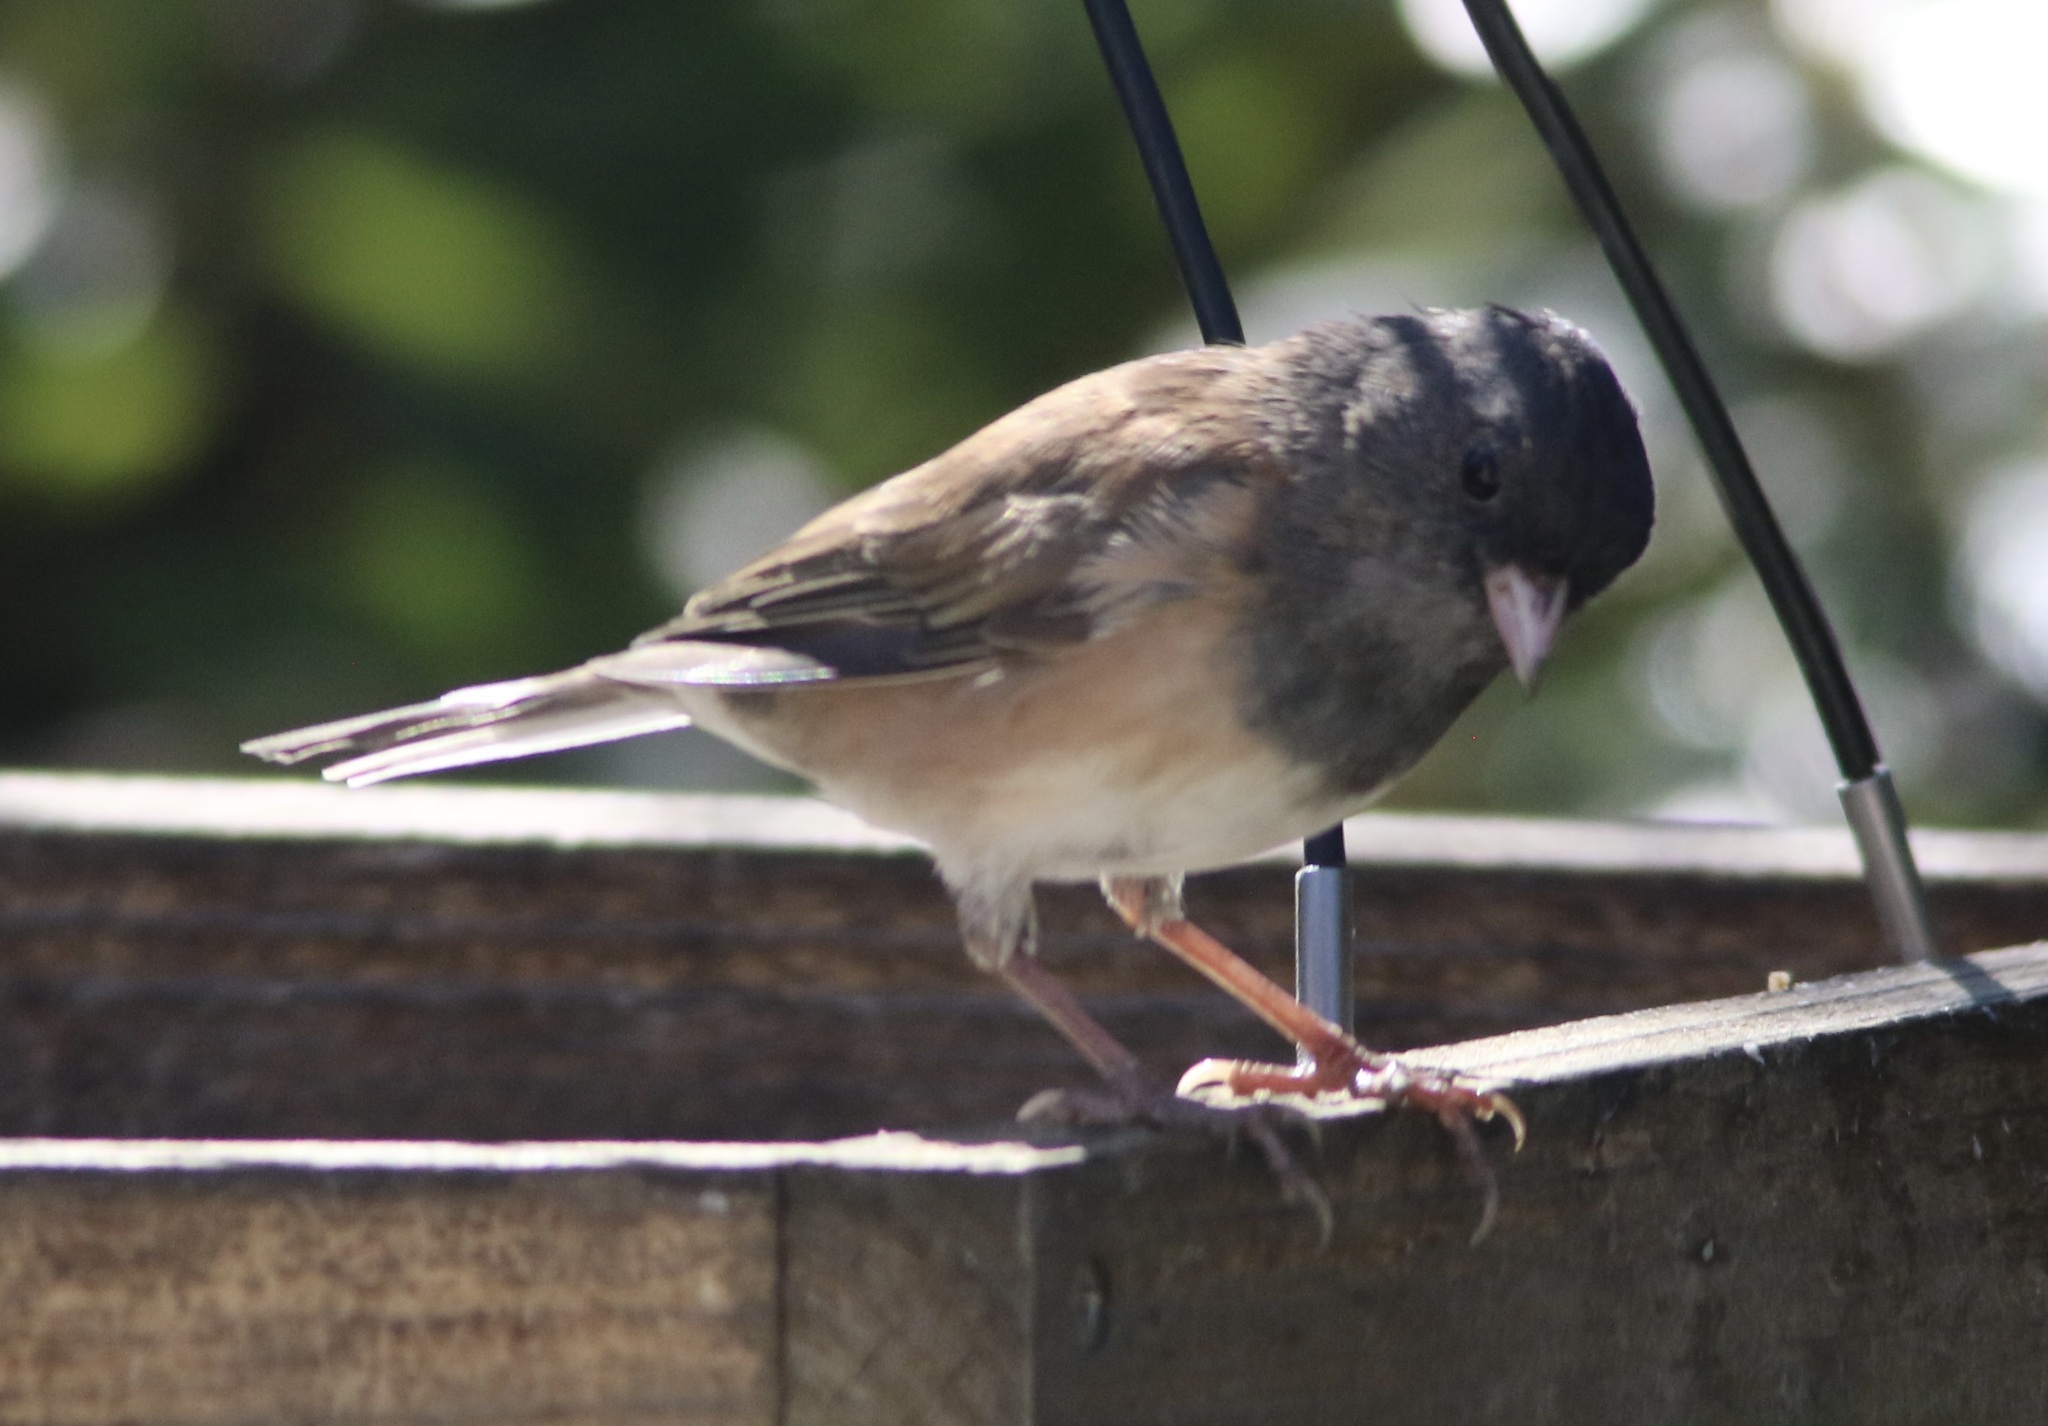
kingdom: Animalia
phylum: Chordata
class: Aves
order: Passeriformes
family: Passerellidae
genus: Junco
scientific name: Junco hyemalis
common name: Dark-eyed junco
